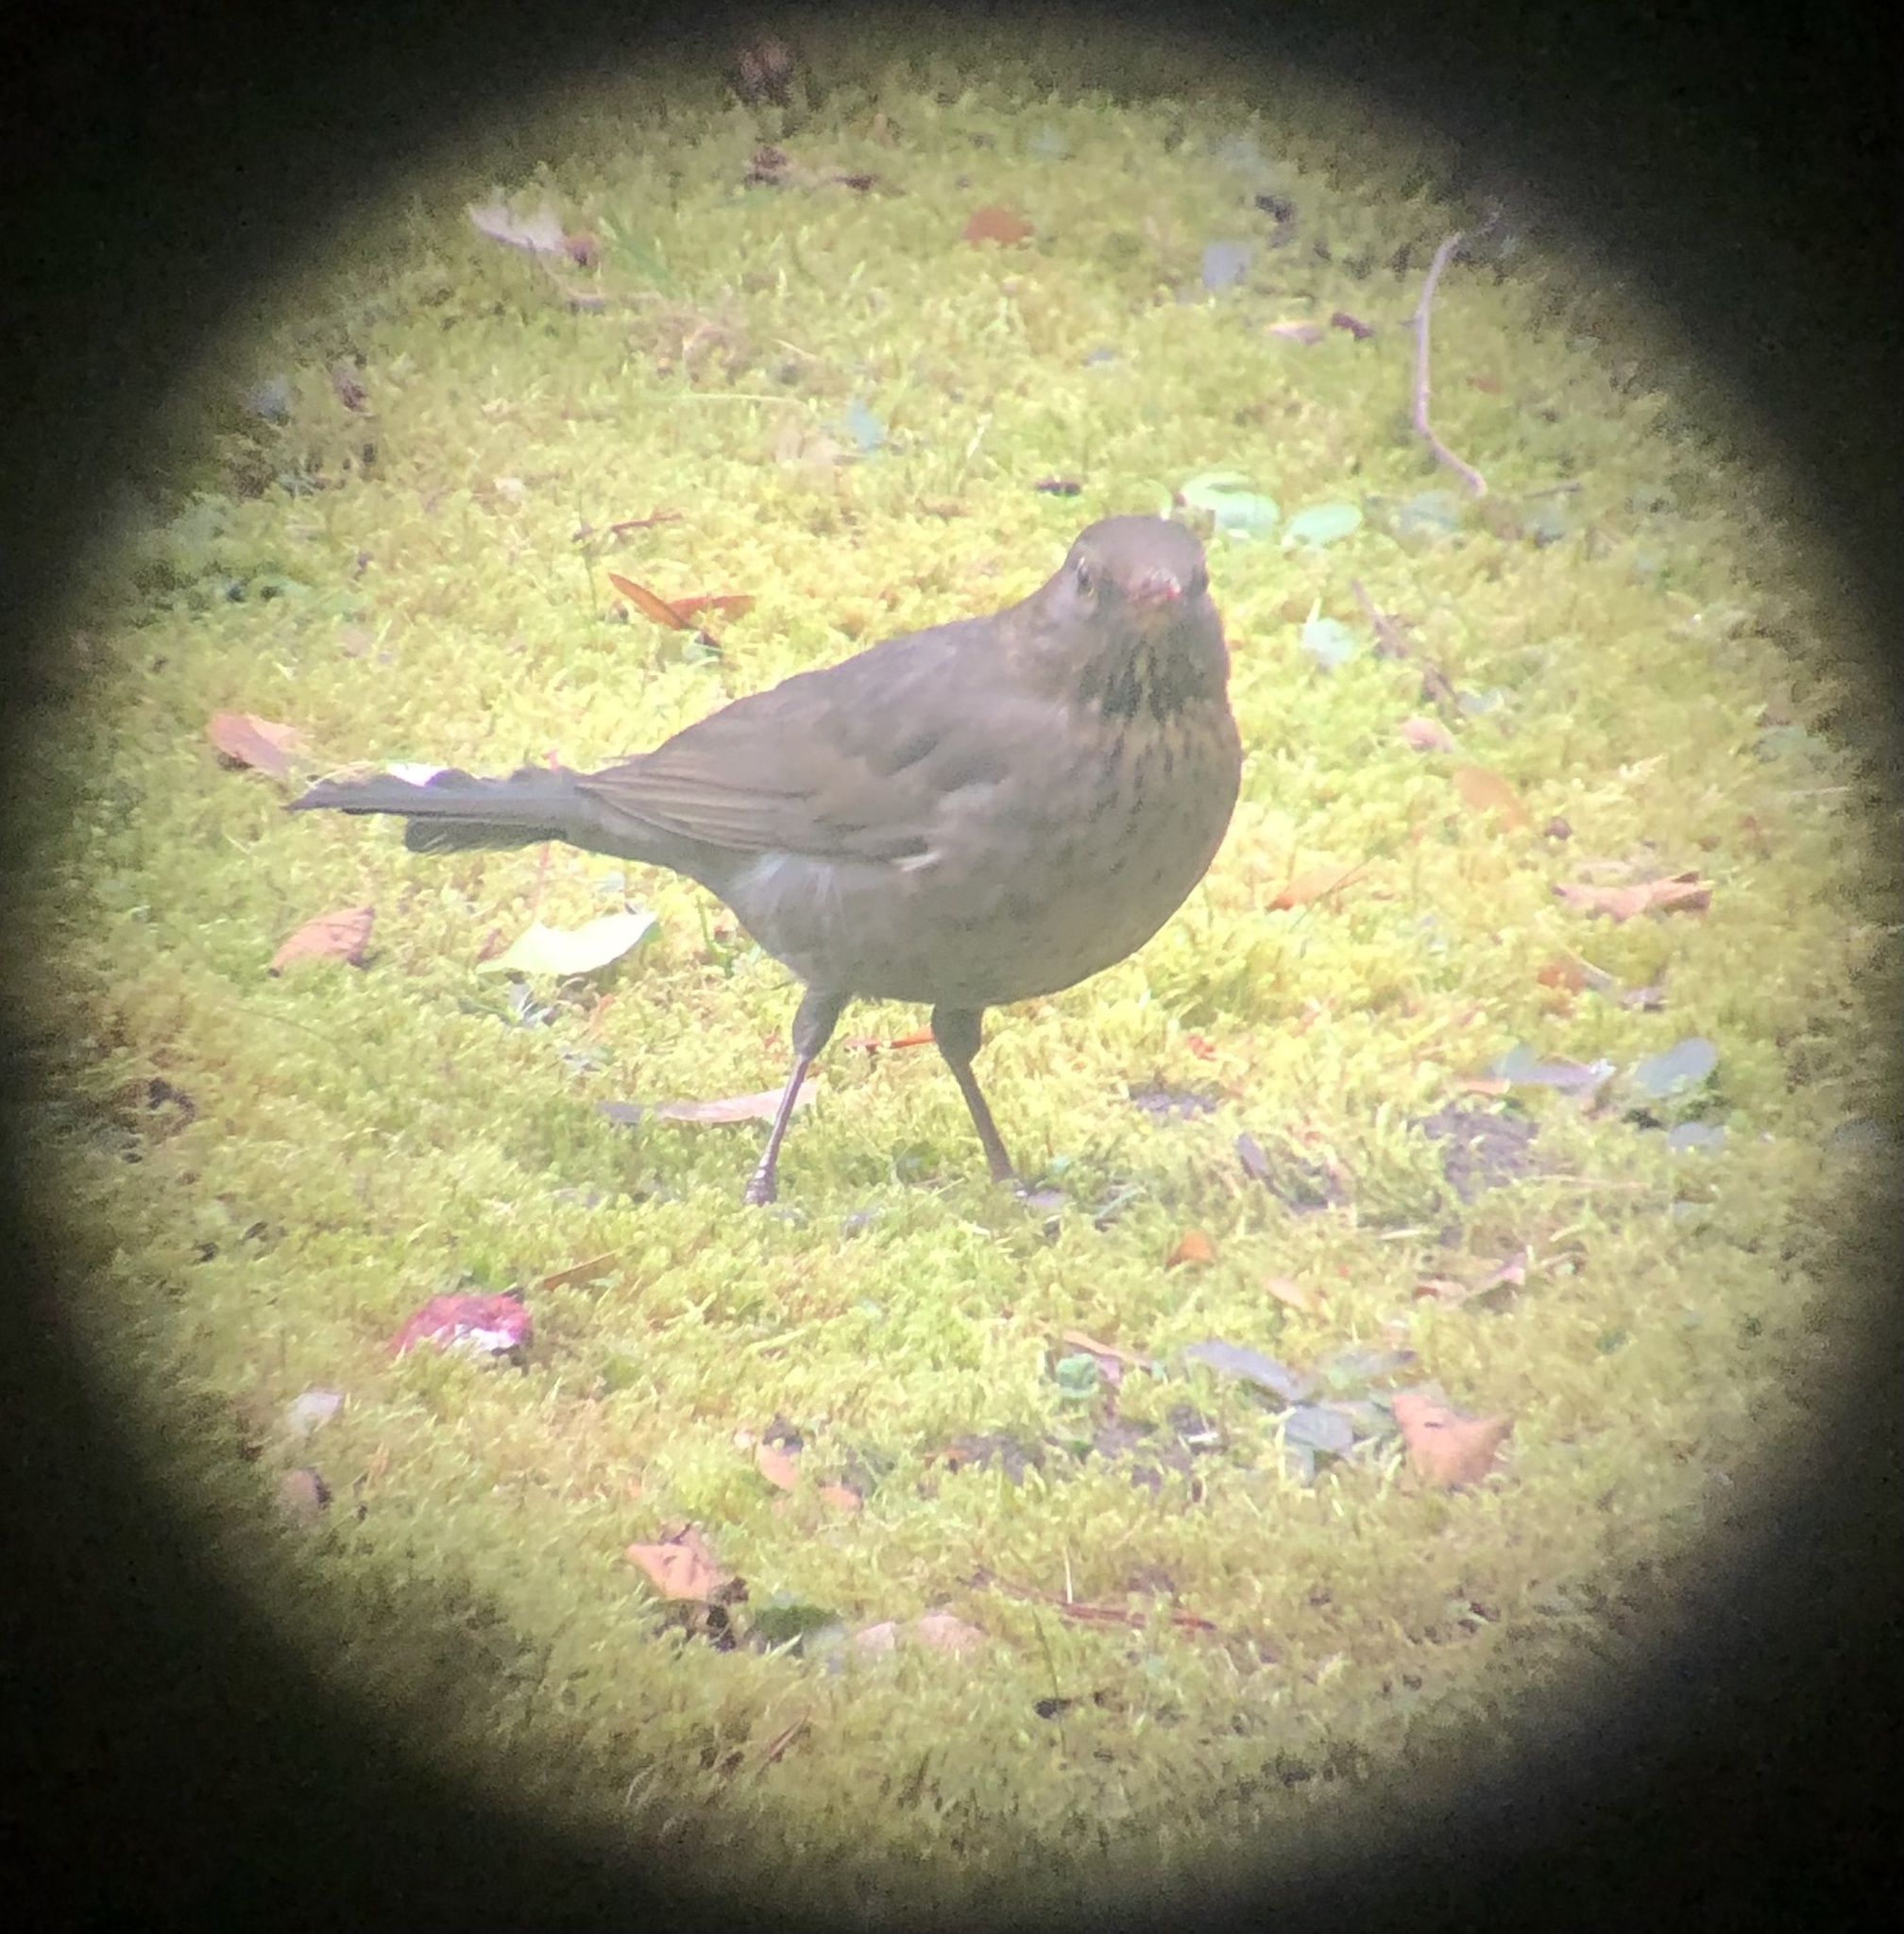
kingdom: Animalia
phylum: Chordata
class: Aves
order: Passeriformes
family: Turdidae
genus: Turdus
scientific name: Turdus merula
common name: Common blackbird
